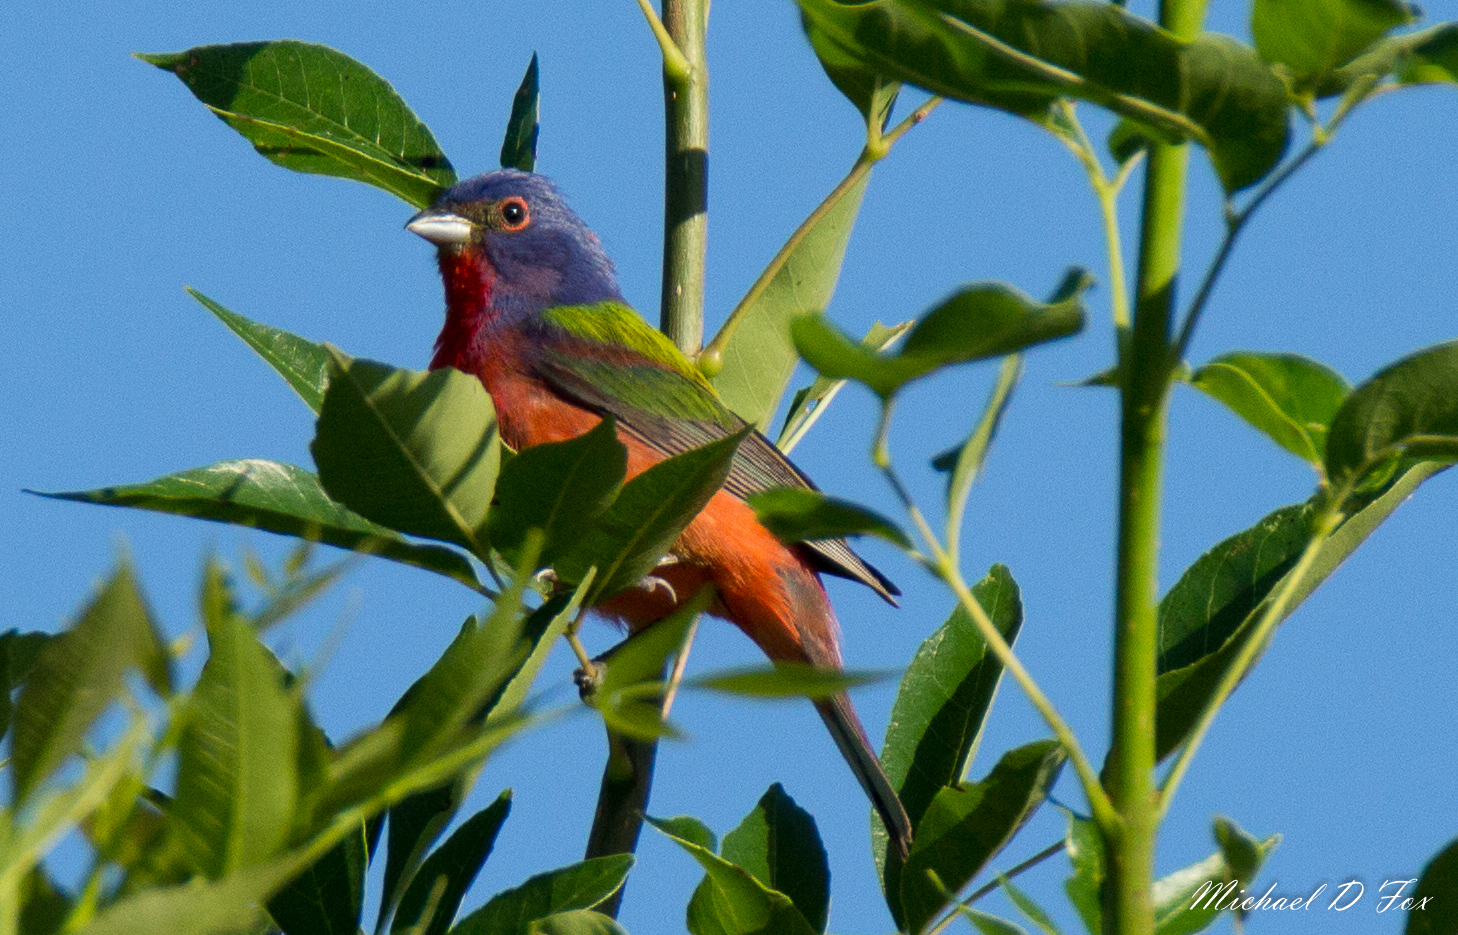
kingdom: Animalia
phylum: Chordata
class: Aves
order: Passeriformes
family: Cardinalidae
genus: Passerina
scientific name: Passerina ciris
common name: Painted bunting
